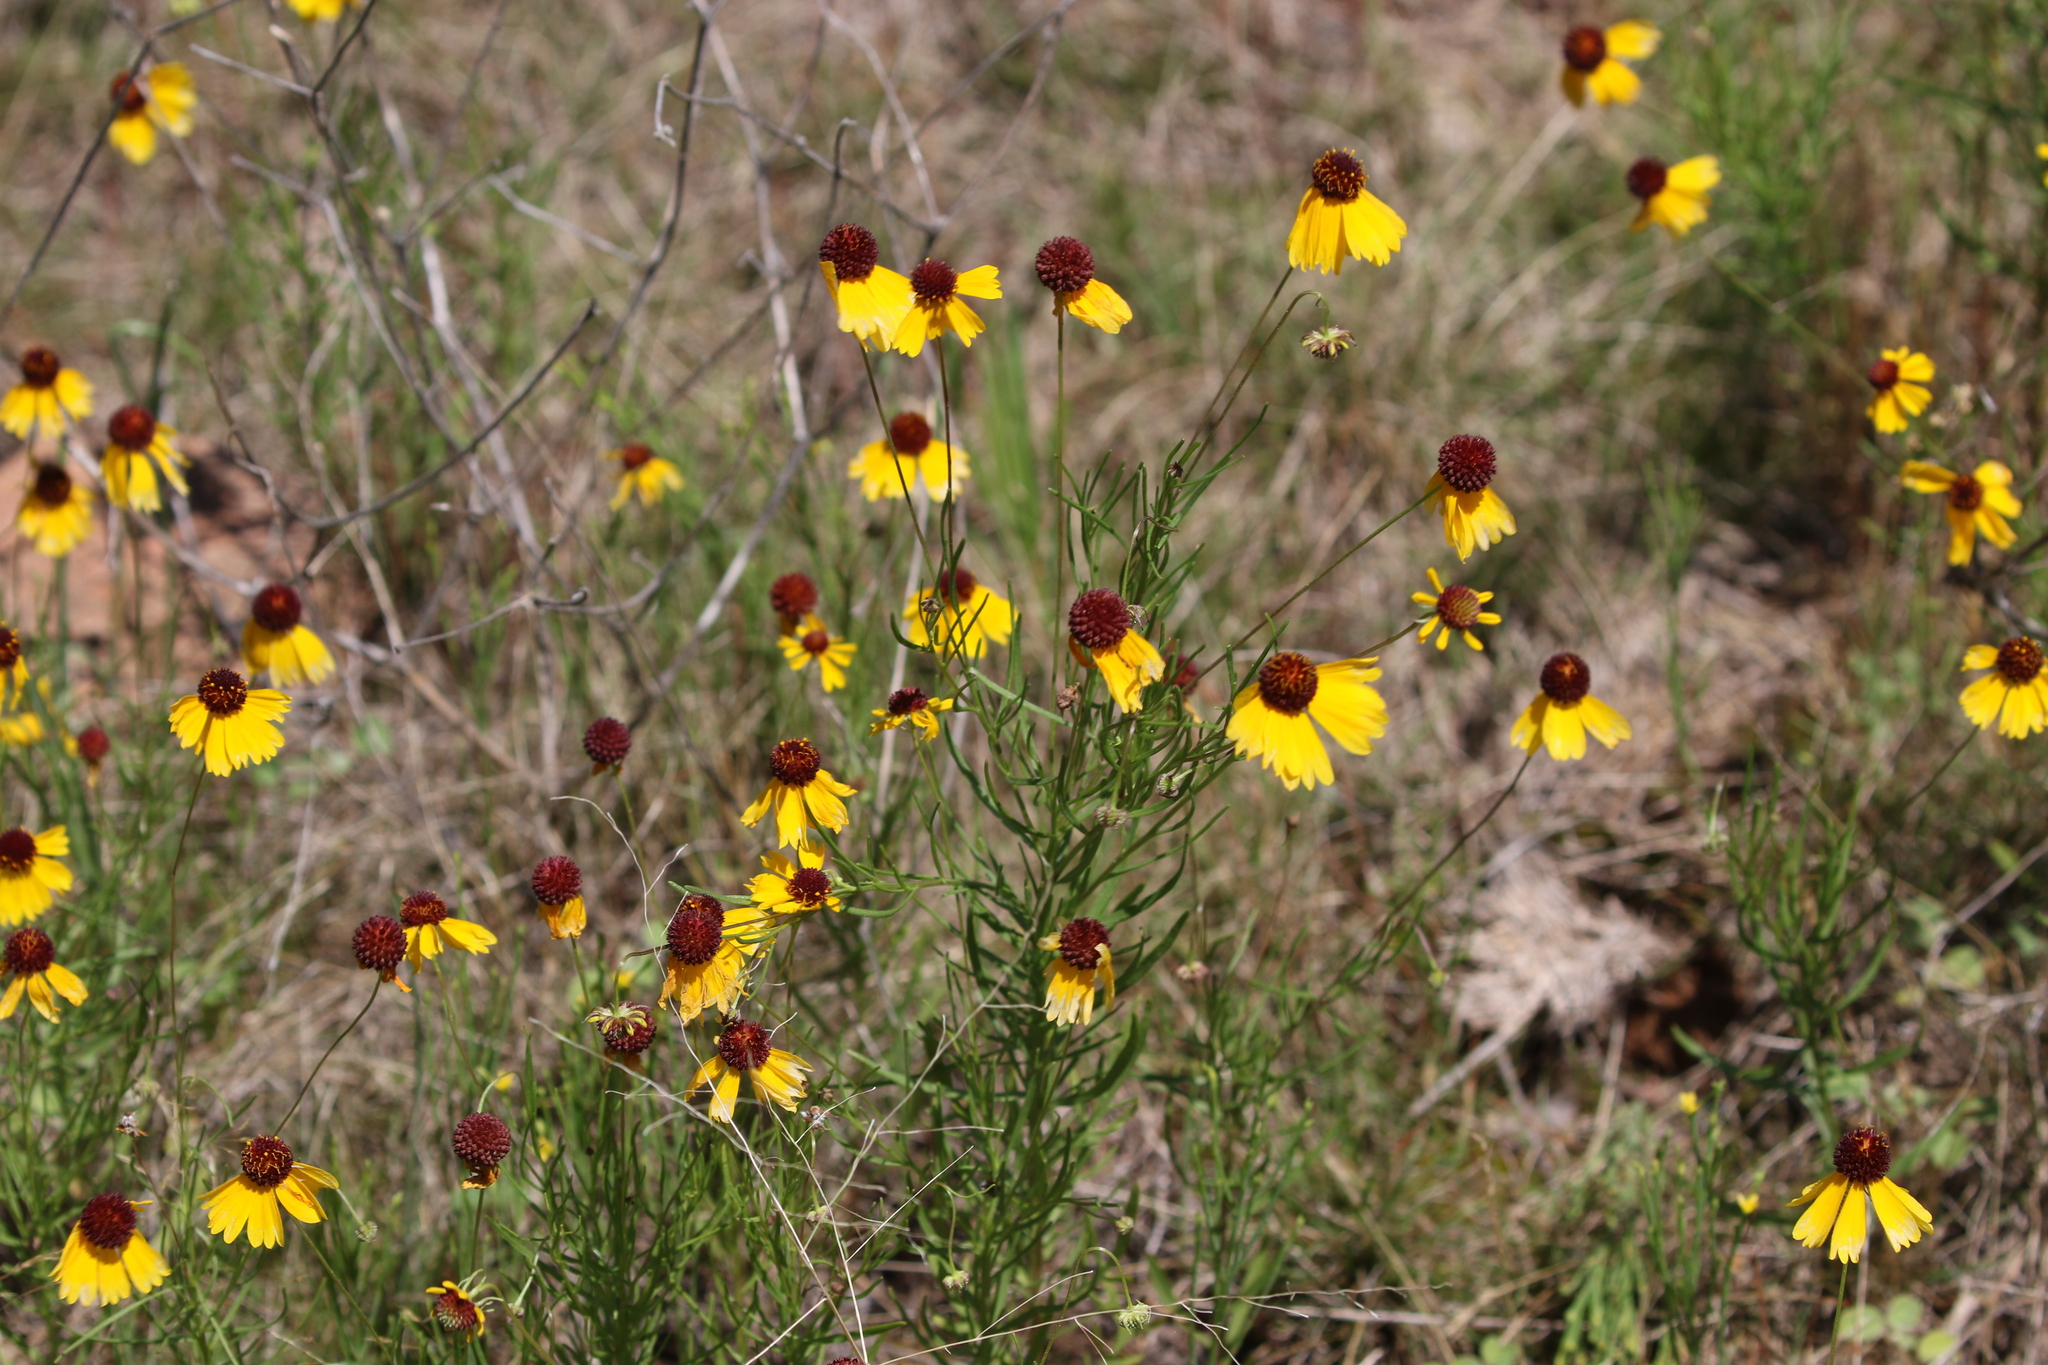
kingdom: Plantae
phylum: Tracheophyta
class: Magnoliopsida
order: Asterales
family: Asteraceae
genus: Helenium
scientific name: Helenium amarum
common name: Bitter sneezeweed
